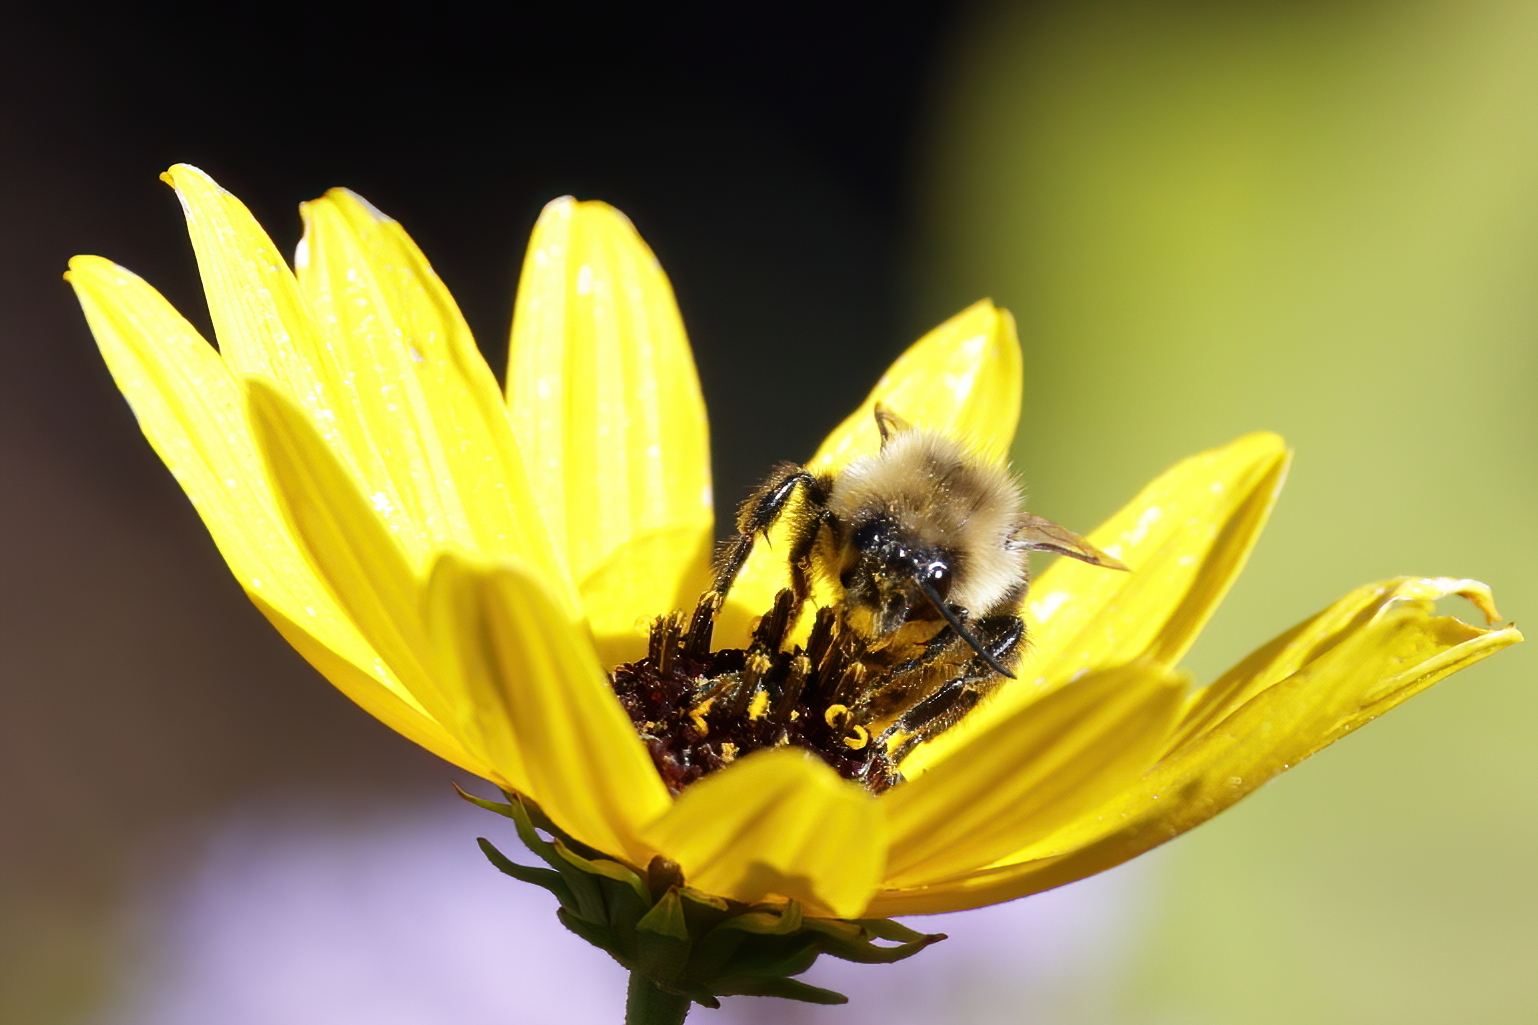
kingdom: Animalia
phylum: Arthropoda
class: Insecta
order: Hymenoptera
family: Apidae
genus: Bombus
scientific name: Bombus impatiens
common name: Common eastern bumble bee
